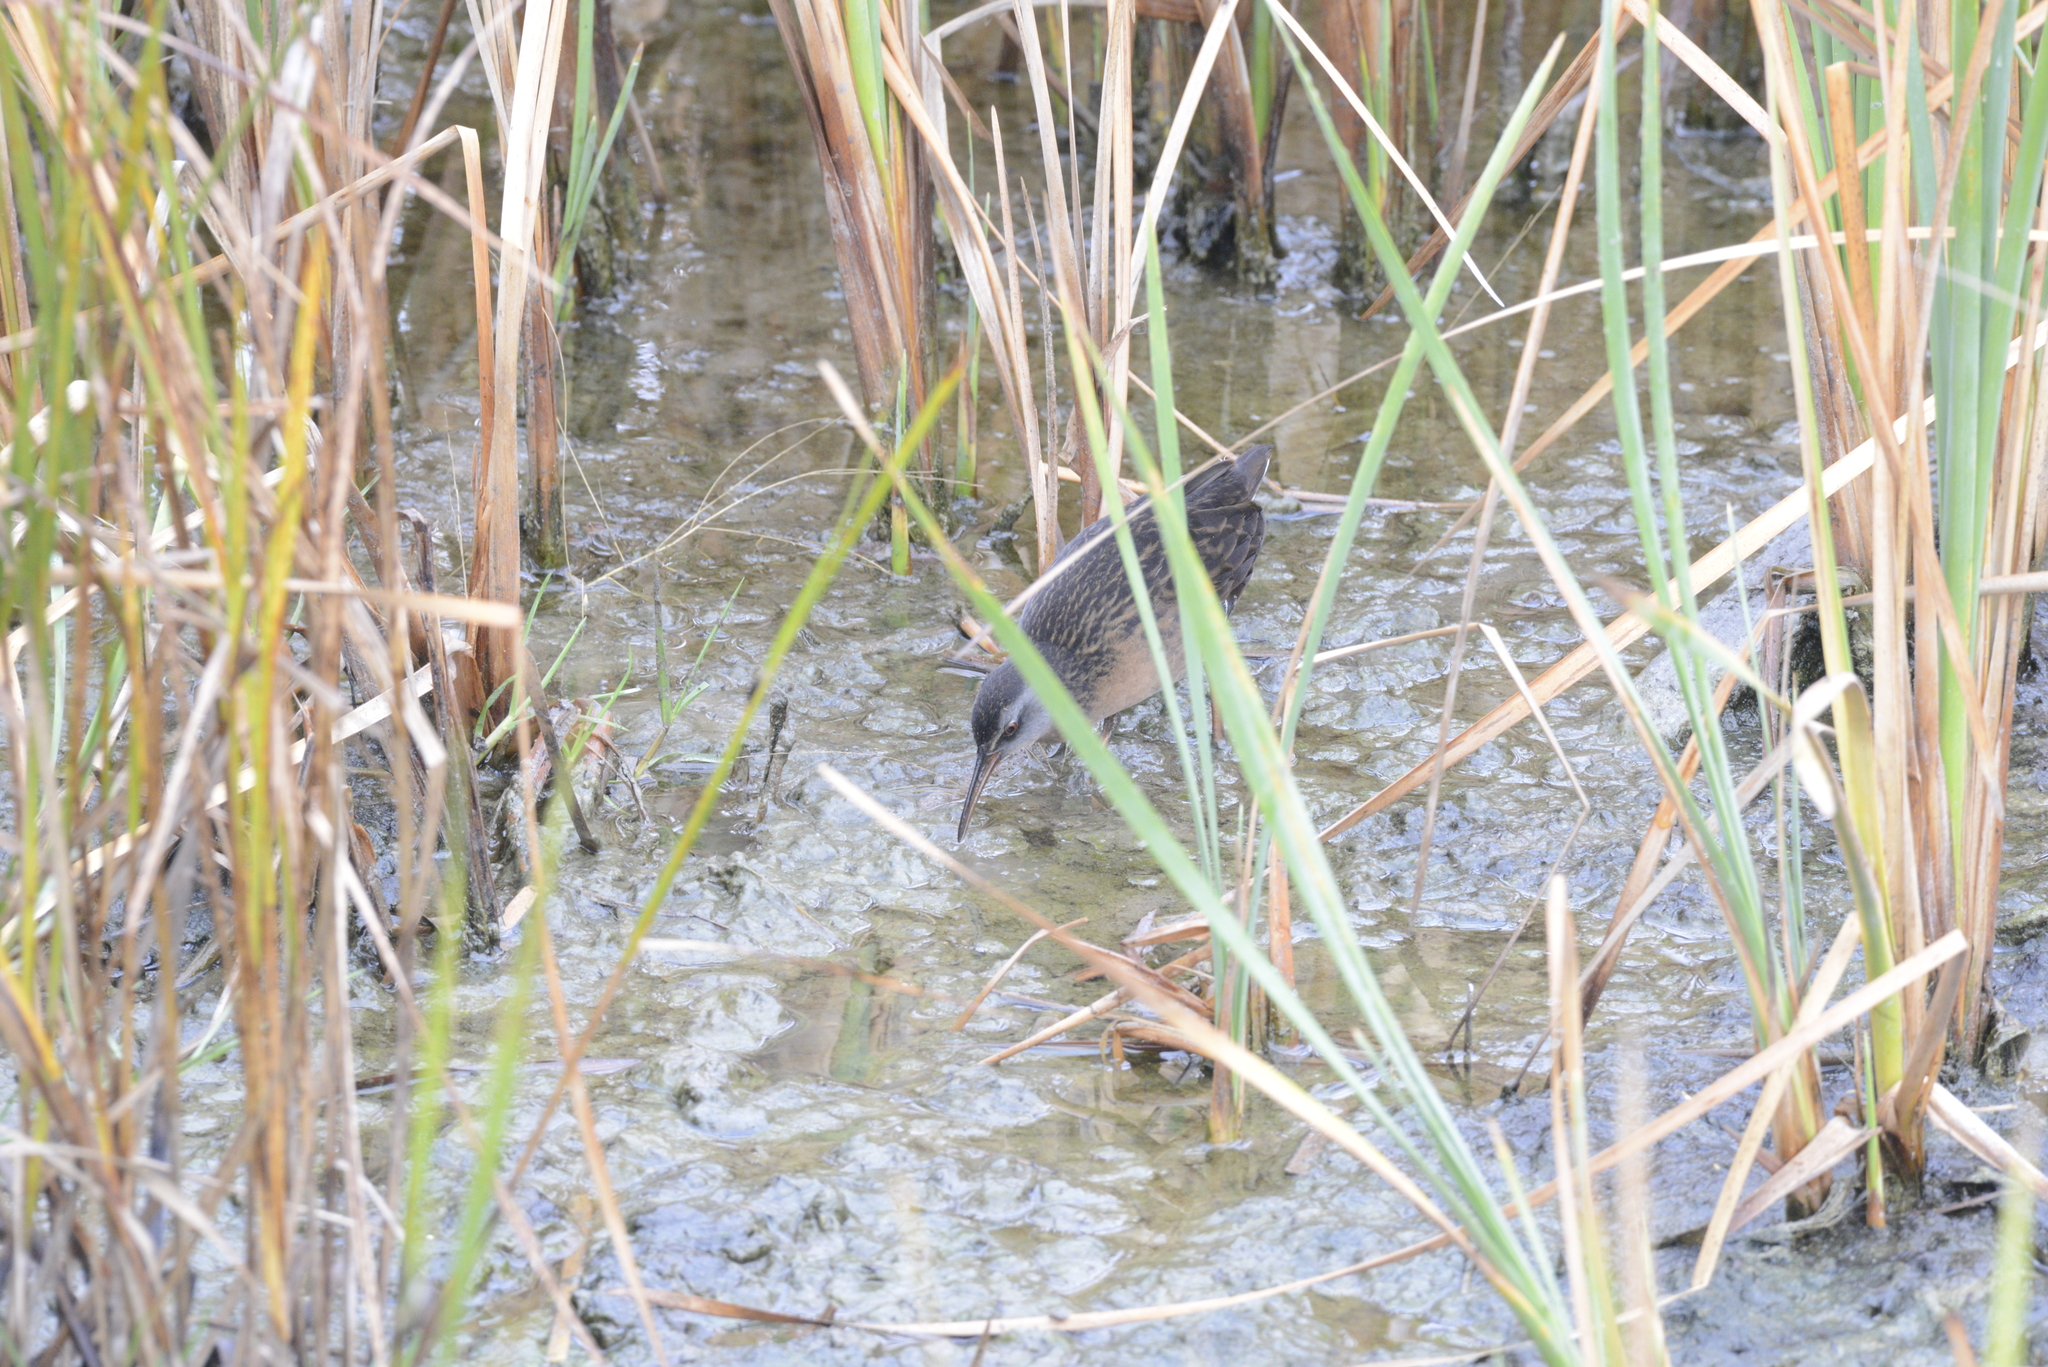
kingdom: Animalia
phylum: Chordata
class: Aves
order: Gruiformes
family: Rallidae
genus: Rallus
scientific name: Rallus limicola
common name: Virginia rail
